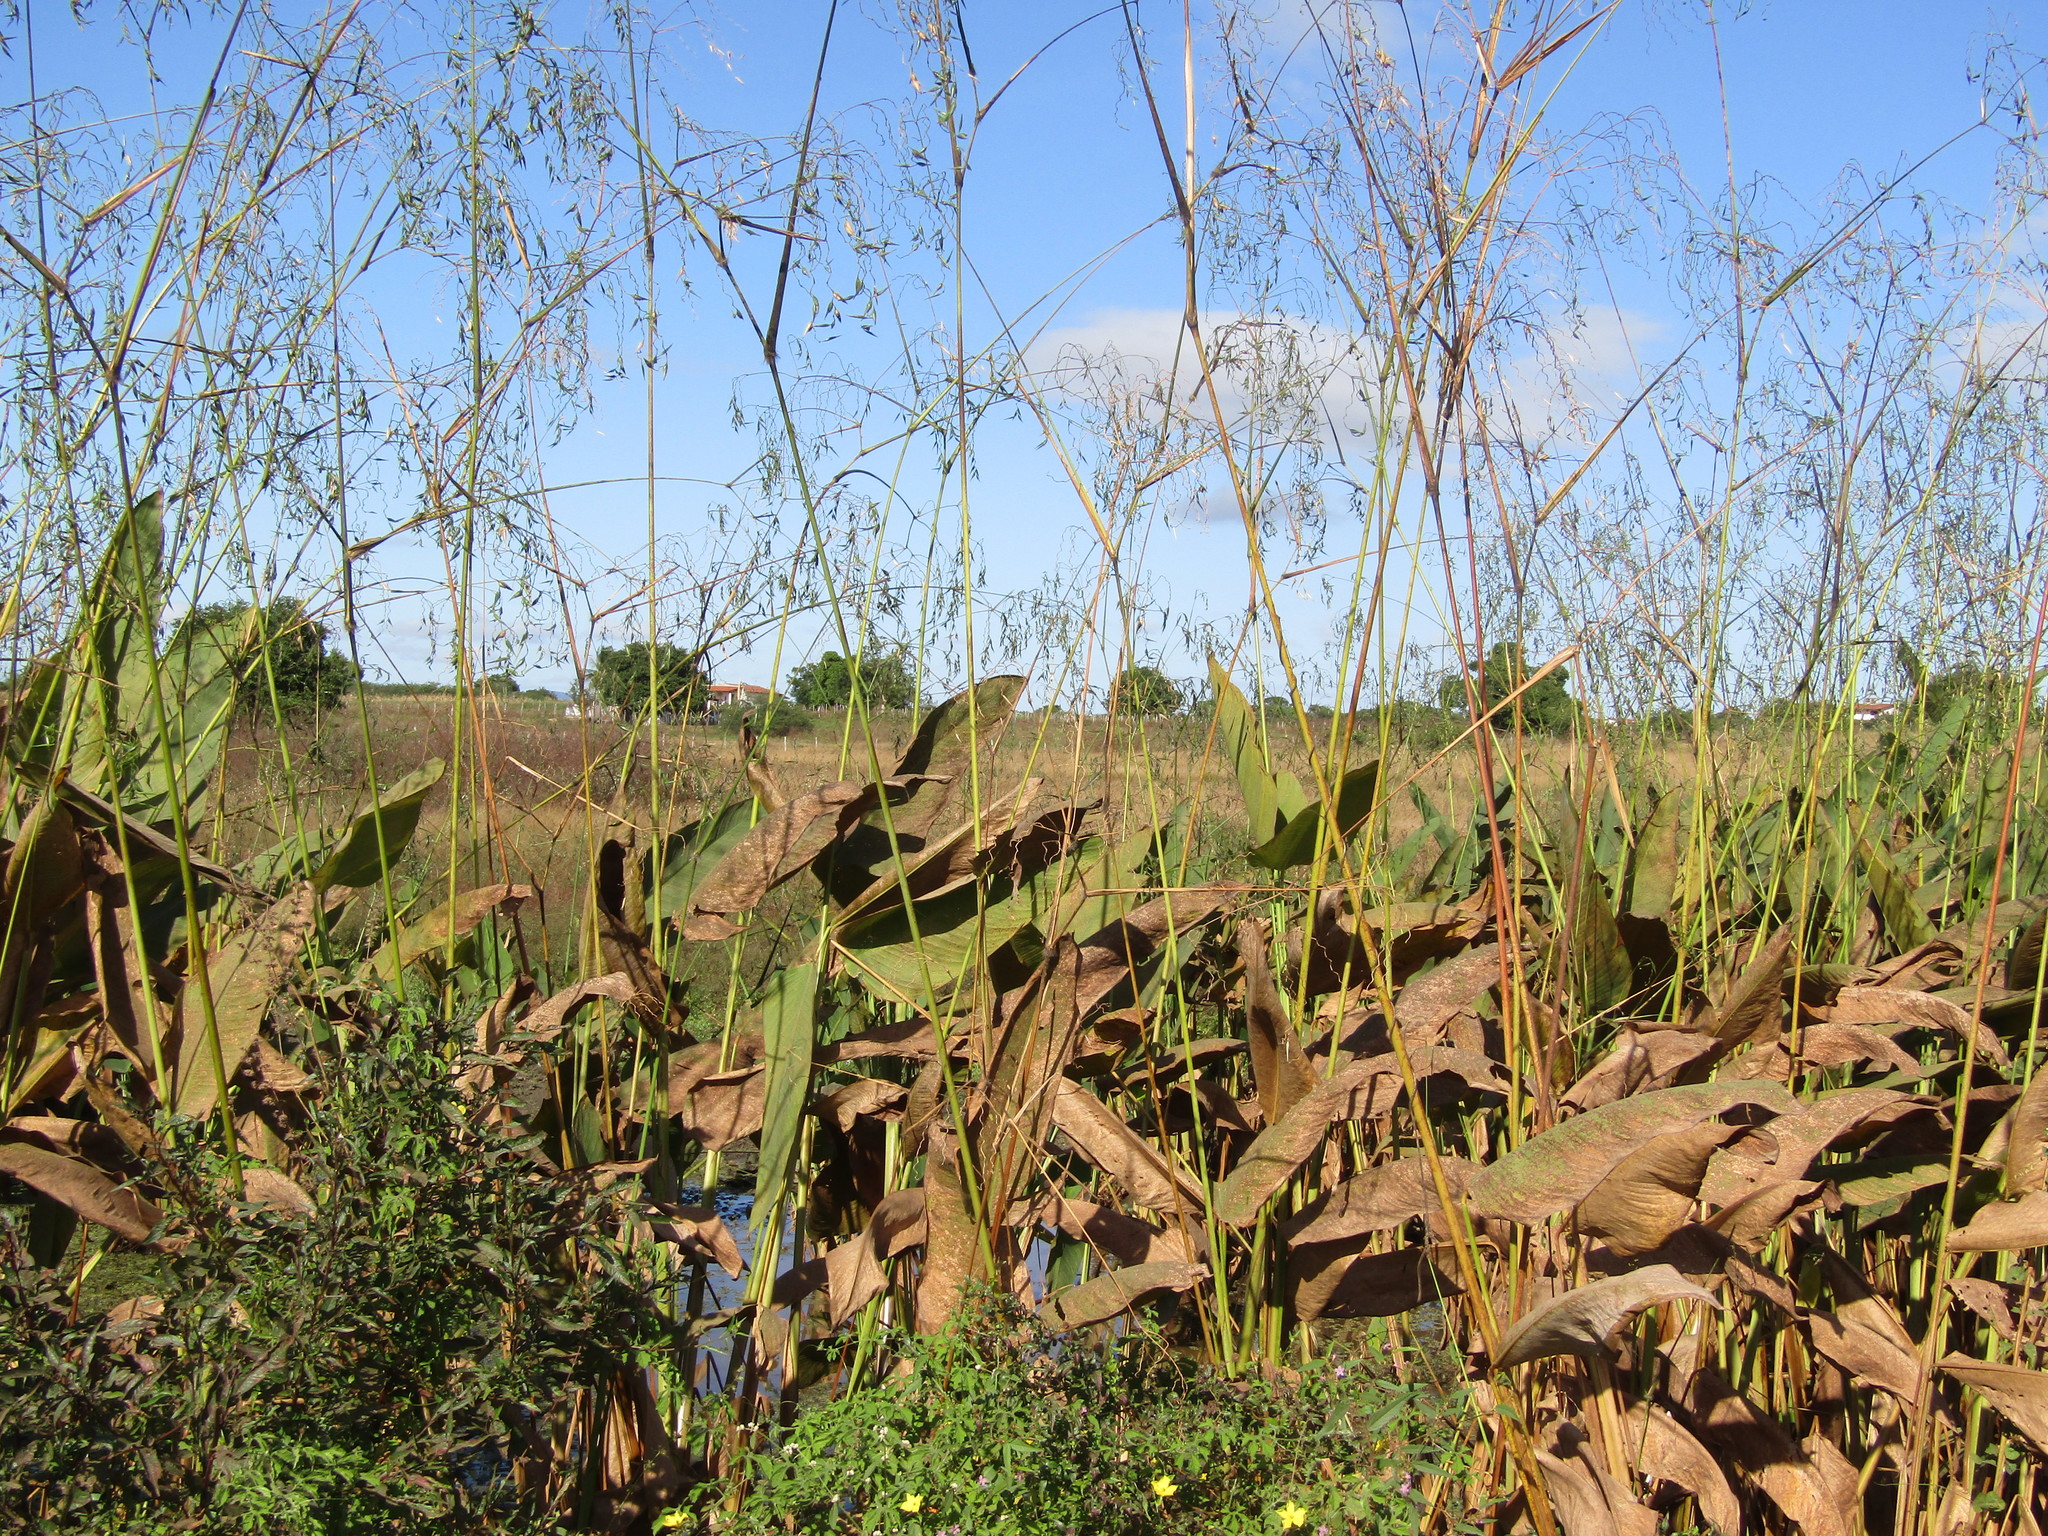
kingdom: Plantae
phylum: Tracheophyta
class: Liliopsida
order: Zingiberales
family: Marantaceae
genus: Thalia
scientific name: Thalia geniculata
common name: Arrowroot
